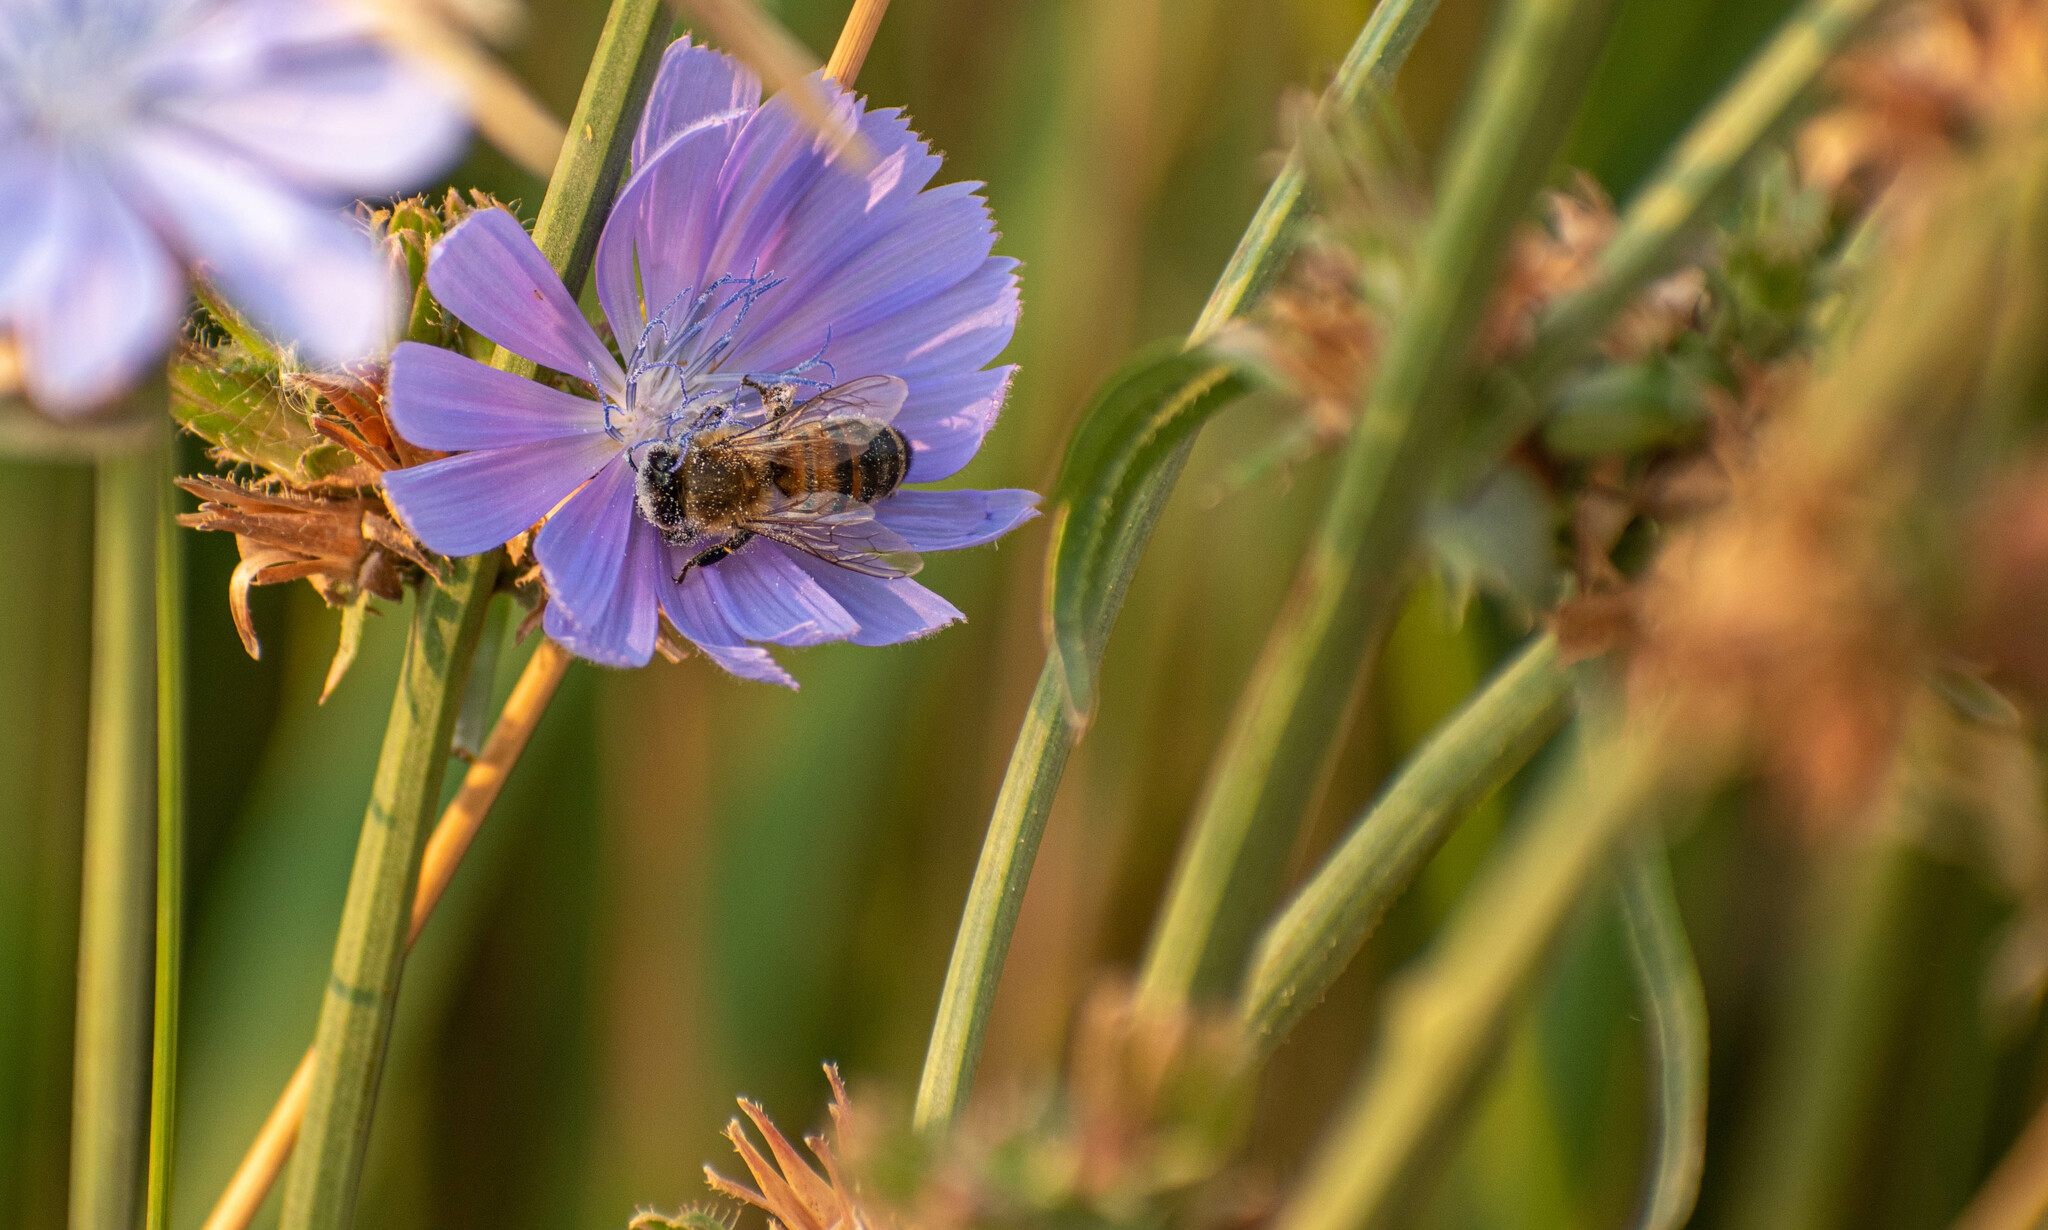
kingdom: Animalia
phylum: Arthropoda
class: Insecta
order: Hymenoptera
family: Apidae
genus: Apis
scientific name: Apis mellifera
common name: Honey bee
